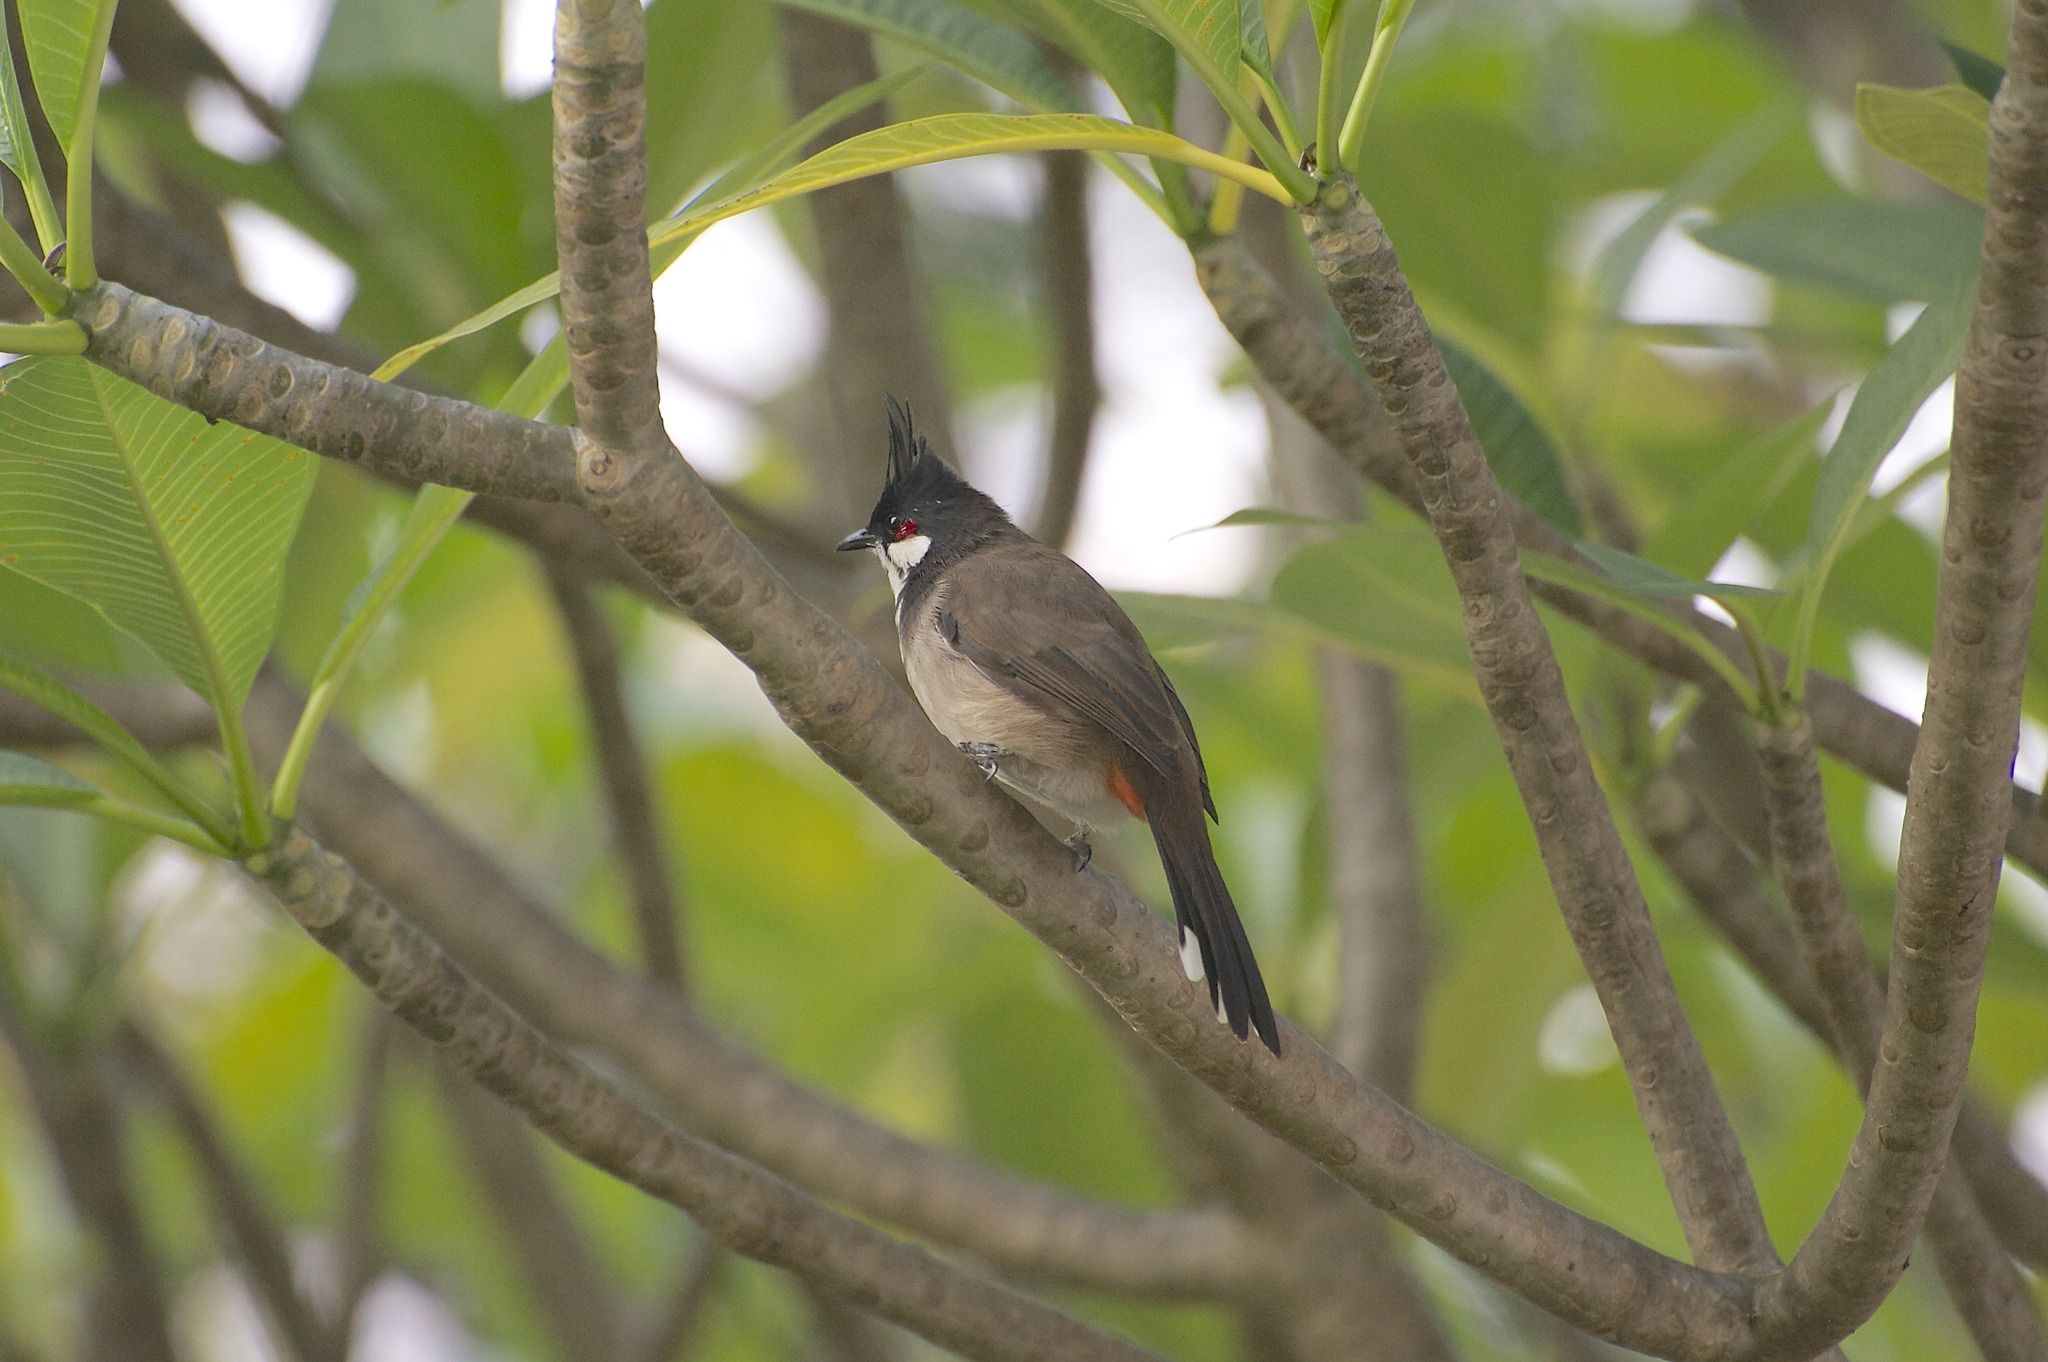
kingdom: Animalia
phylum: Chordata
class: Aves
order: Passeriformes
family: Pycnonotidae
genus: Pycnonotus
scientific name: Pycnonotus jocosus
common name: Red-whiskered bulbul
